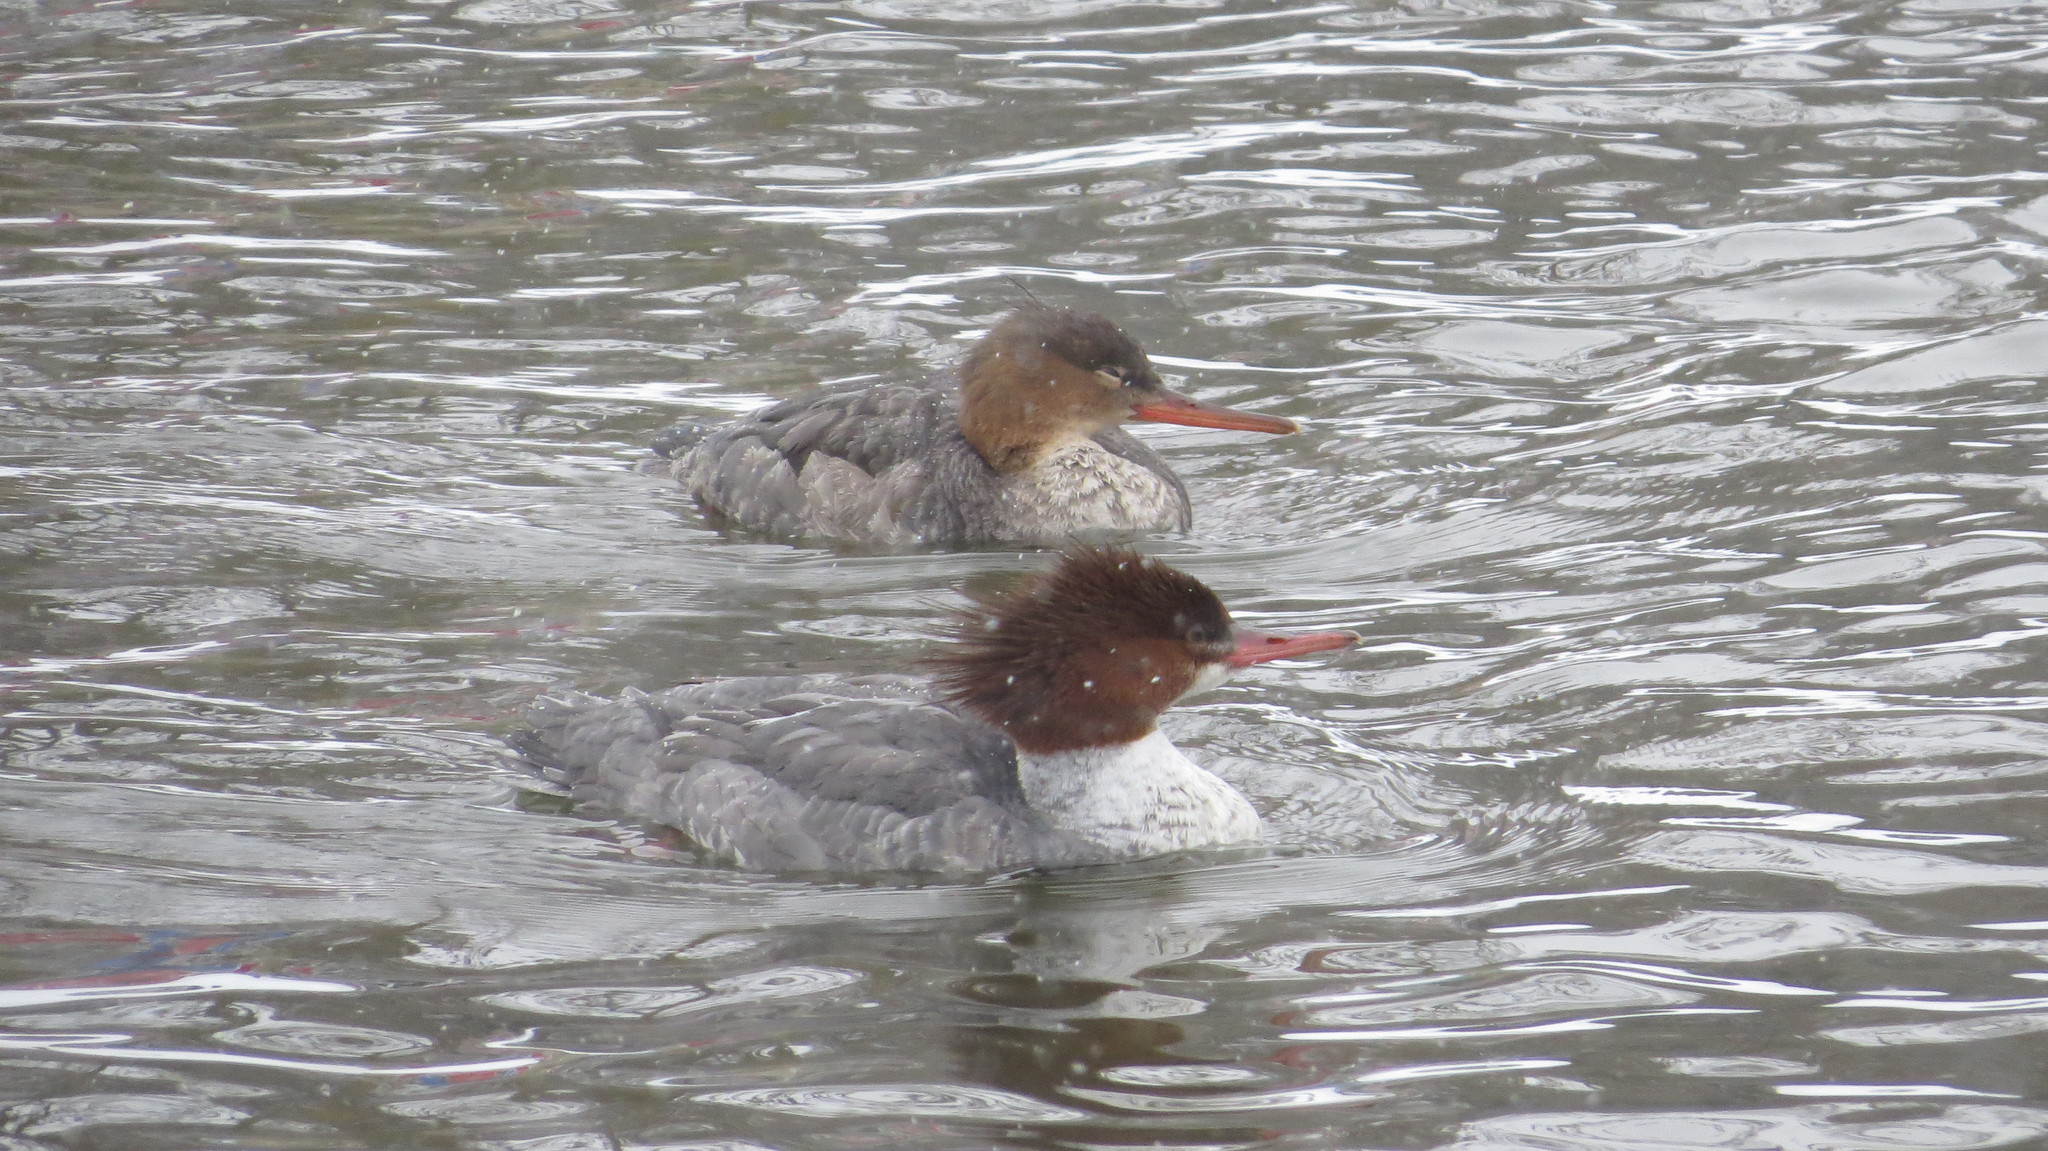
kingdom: Animalia
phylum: Chordata
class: Aves
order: Anseriformes
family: Anatidae
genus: Mergus
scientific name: Mergus serrator
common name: Red-breasted merganser
